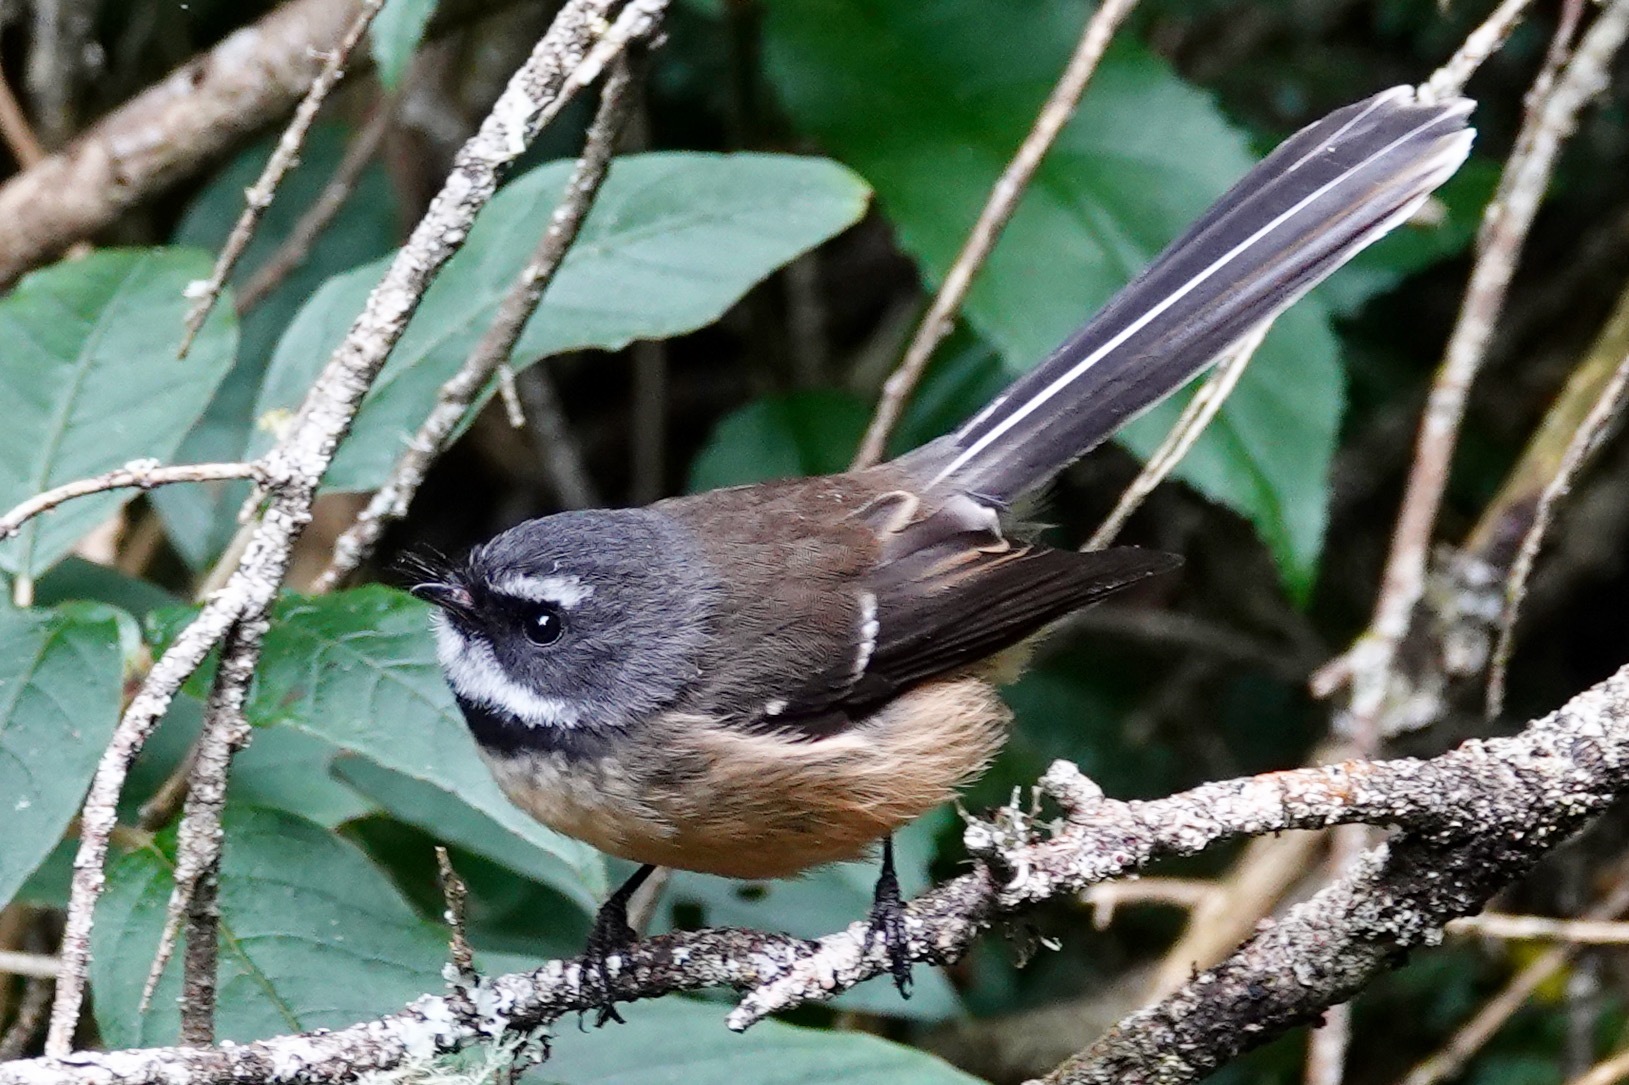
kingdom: Animalia
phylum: Chordata
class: Aves
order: Passeriformes
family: Rhipiduridae
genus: Rhipidura
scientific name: Rhipidura fuliginosa
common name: New zealand fantail
